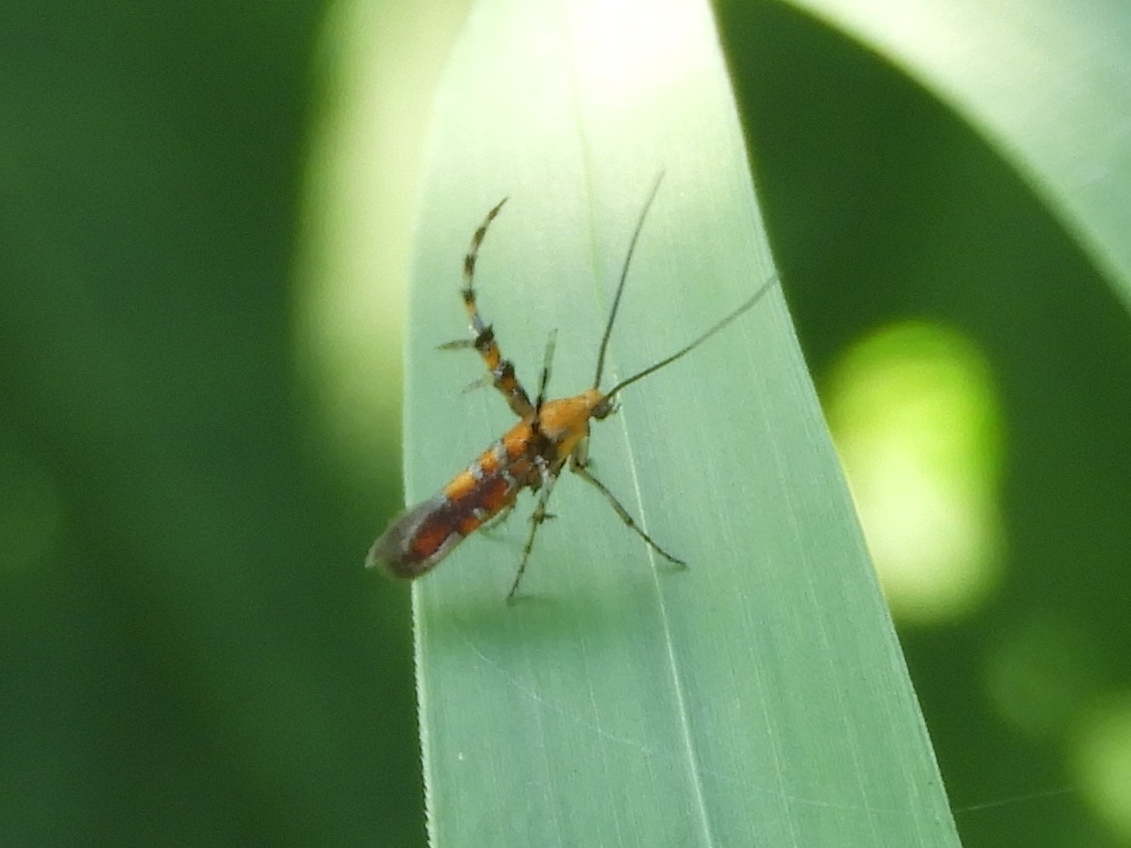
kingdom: Animalia
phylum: Arthropoda
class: Insecta
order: Lepidoptera
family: Heliodinidae
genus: Heliodines
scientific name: Heliodines
